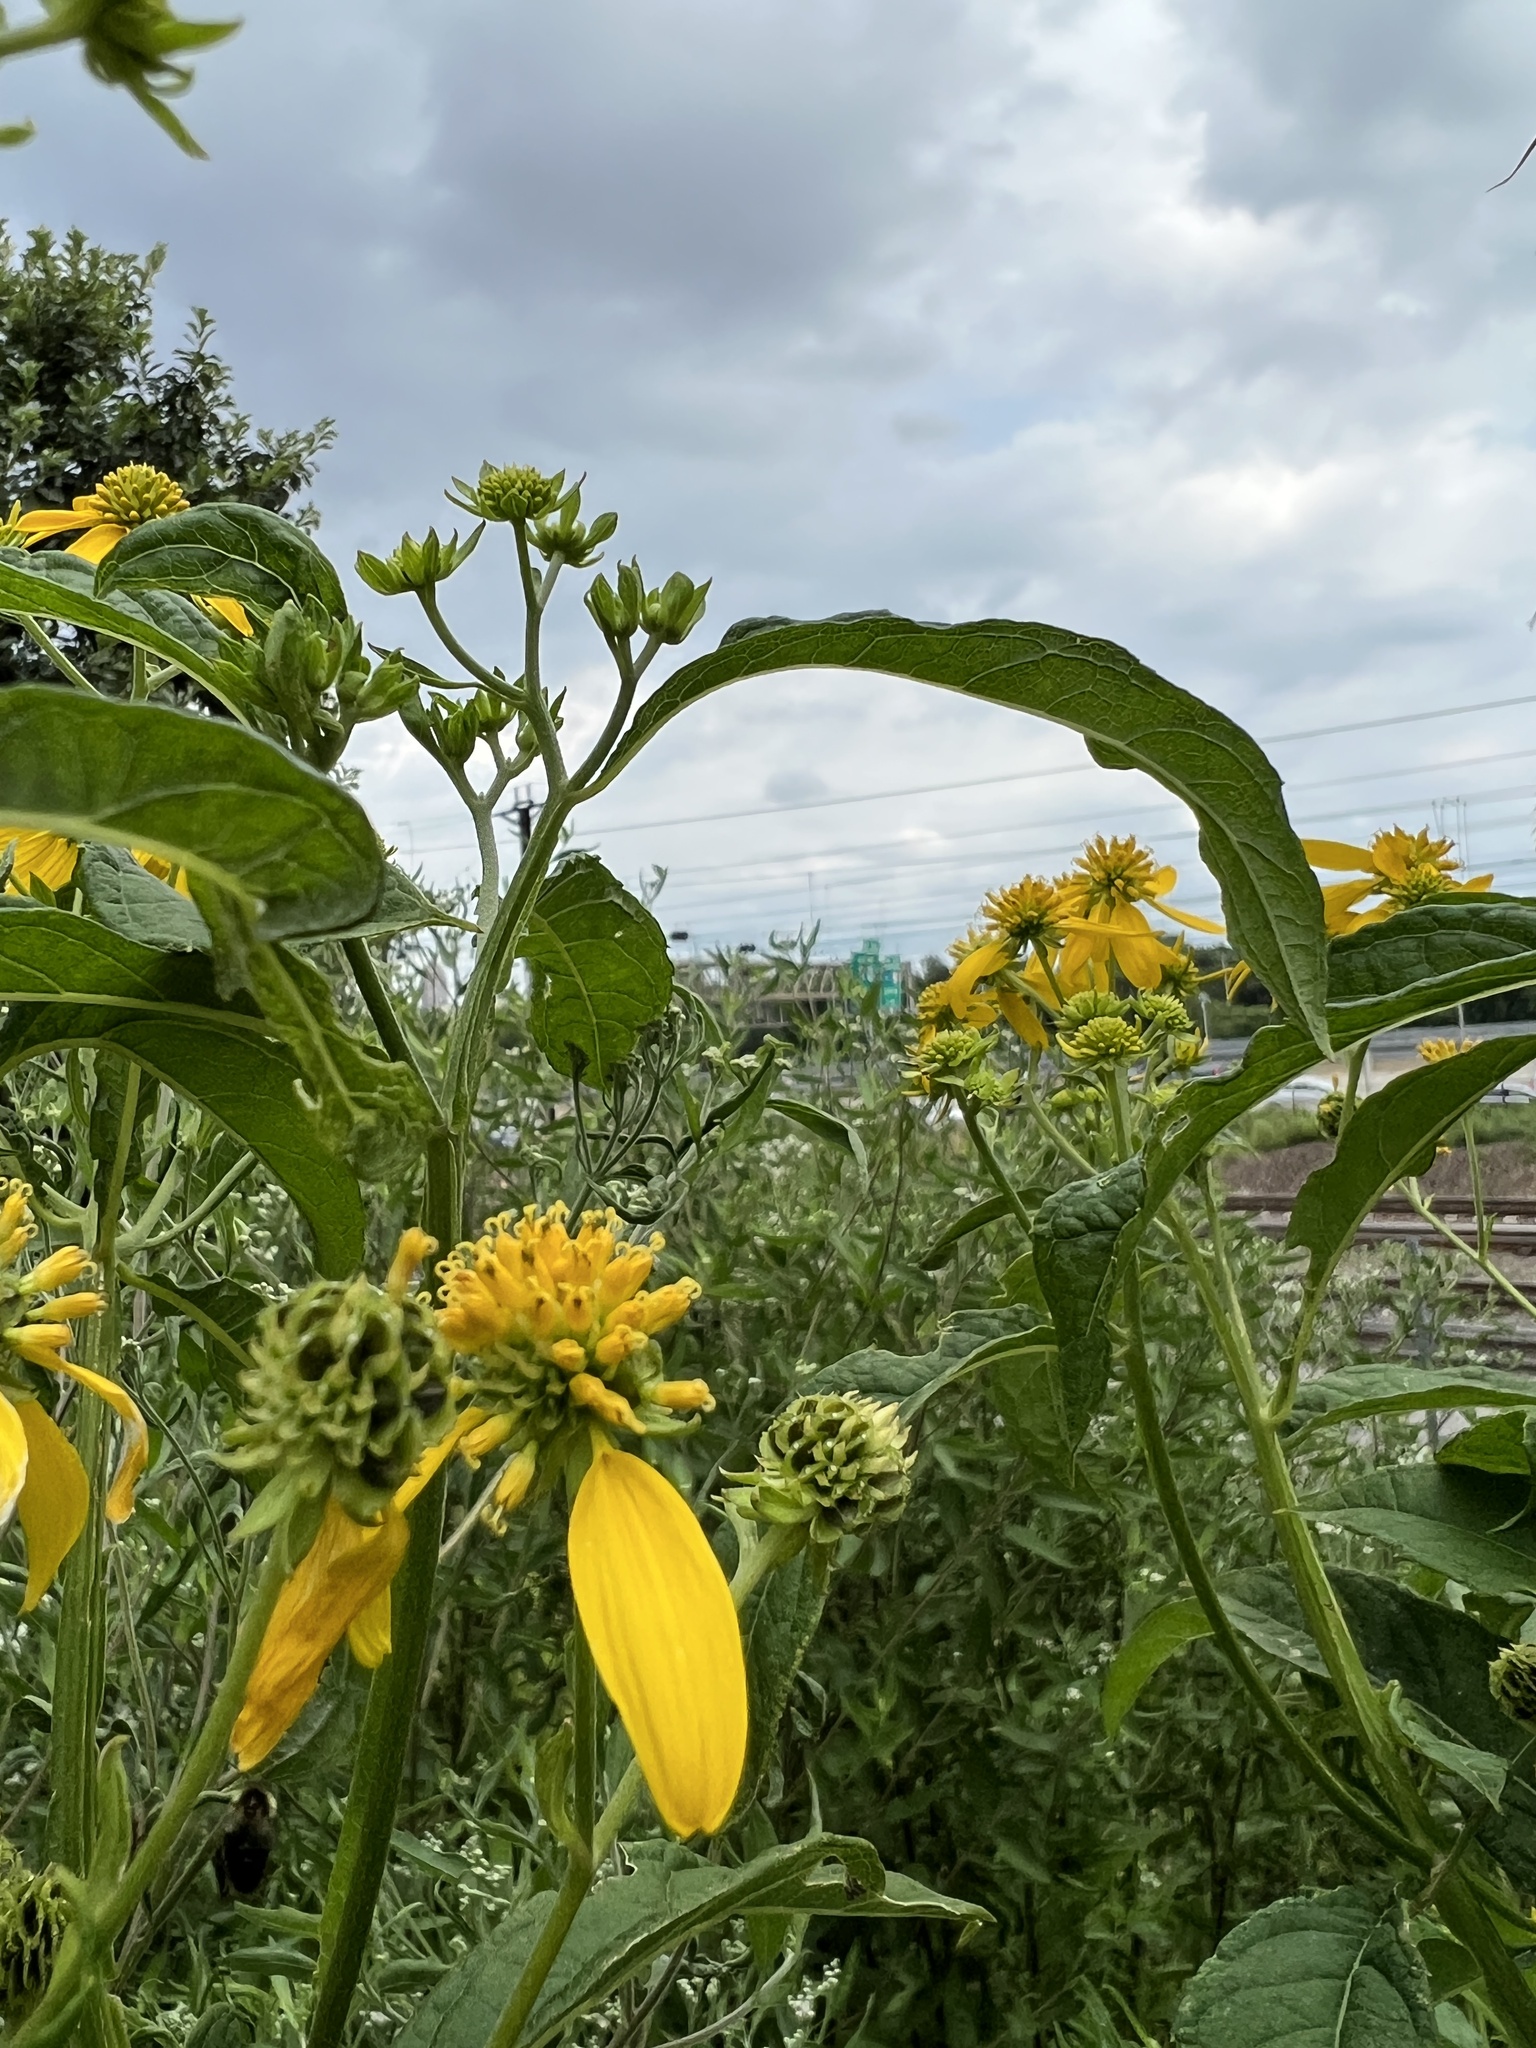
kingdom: Plantae
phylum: Tracheophyta
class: Magnoliopsida
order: Asterales
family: Asteraceae
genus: Verbesina
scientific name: Verbesina alternifolia
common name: Wingstem
